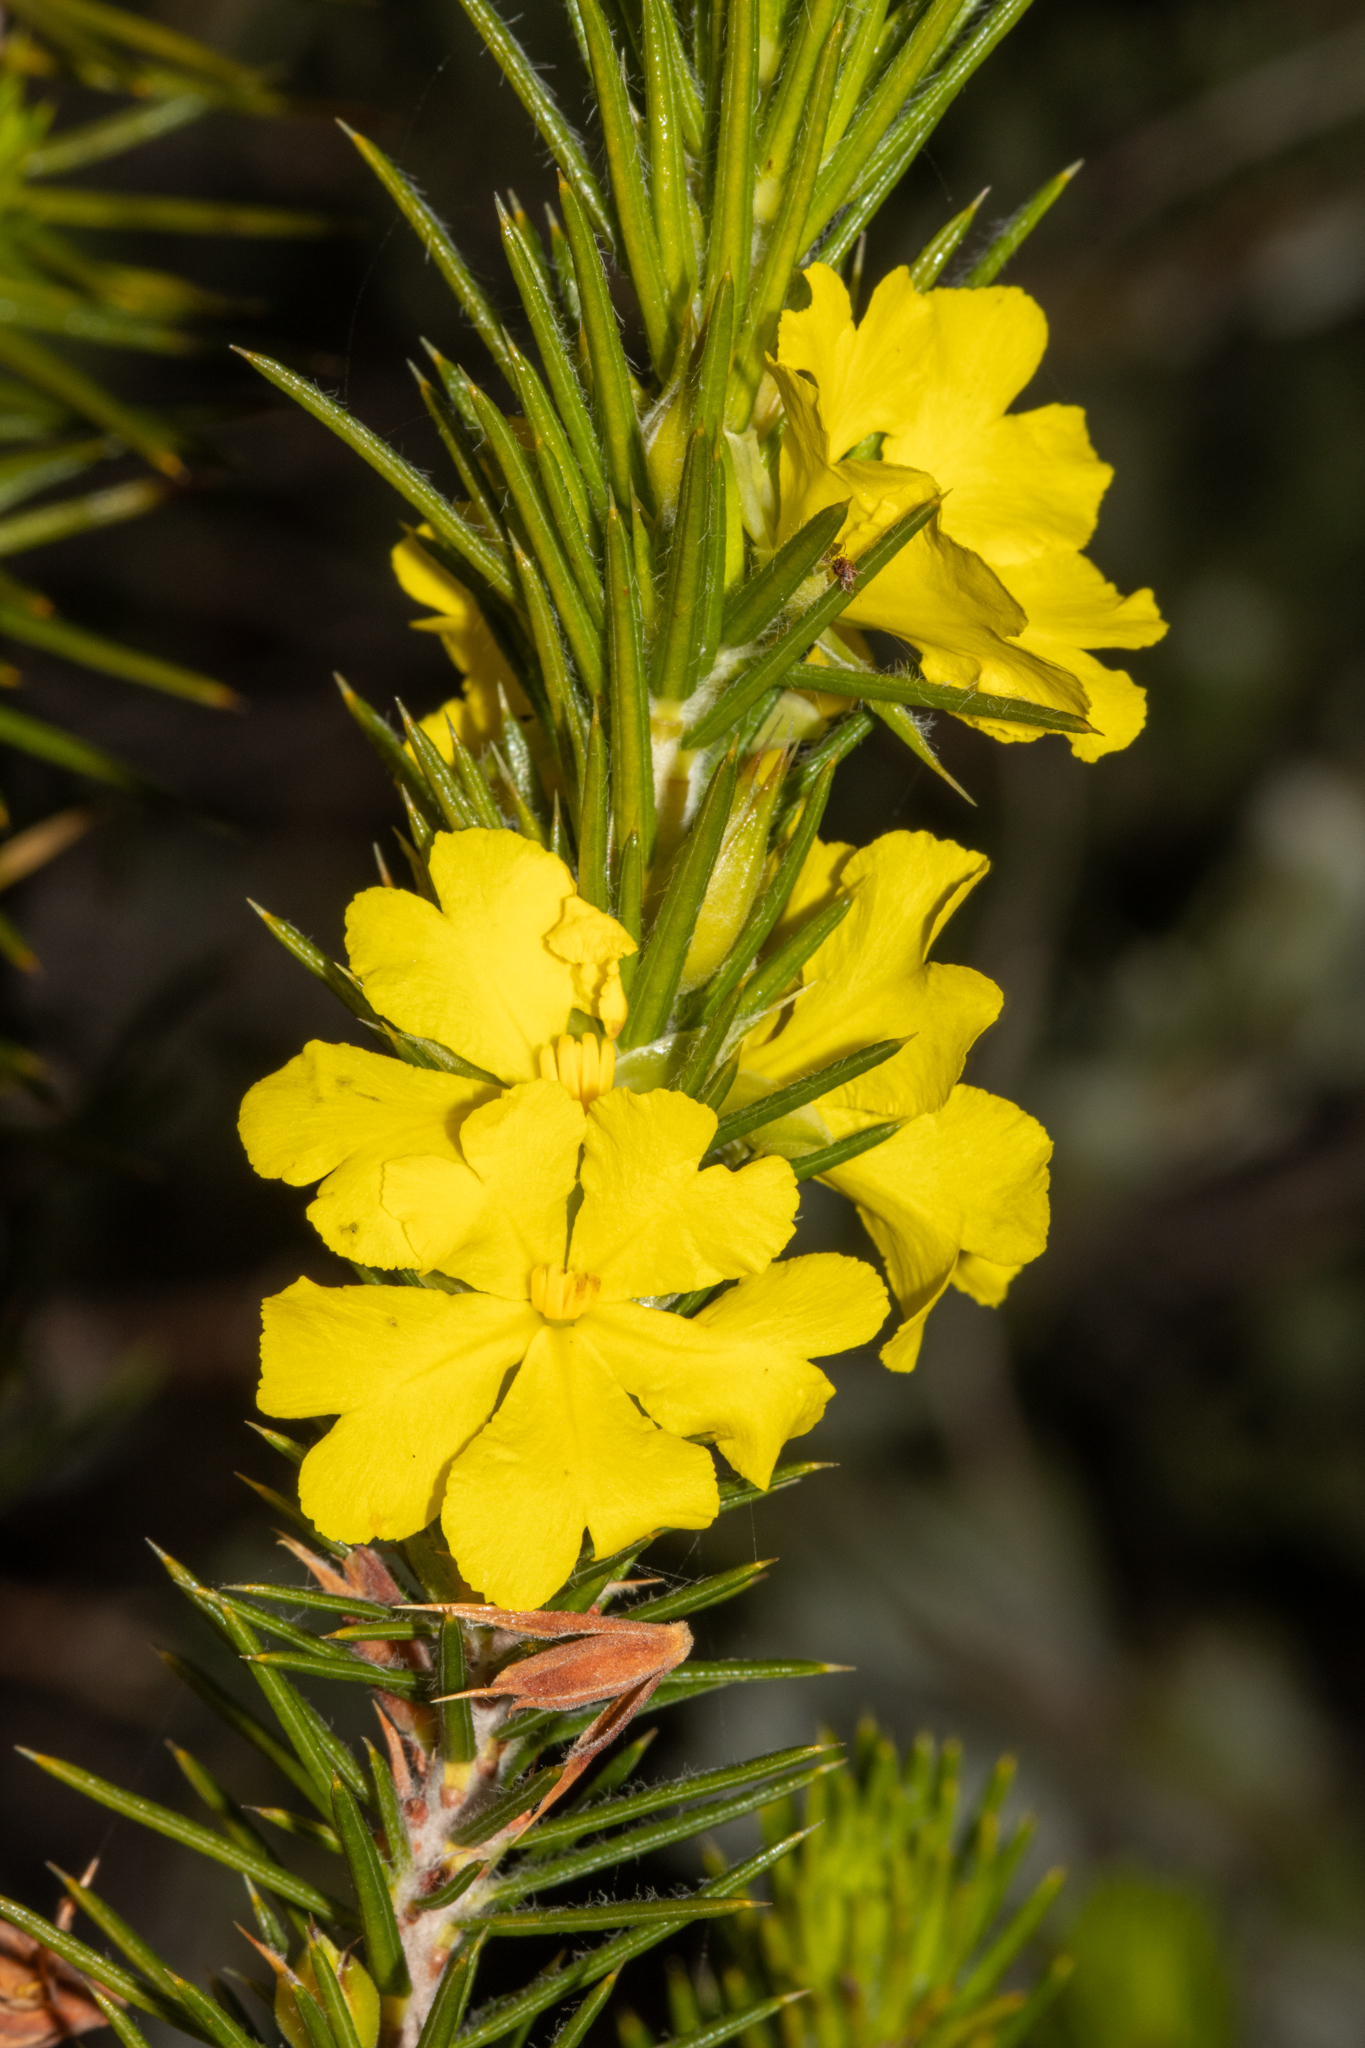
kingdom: Plantae
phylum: Tracheophyta
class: Magnoliopsida
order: Dilleniales
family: Dilleniaceae
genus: Hibbertia
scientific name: Hibbertia mucronata
